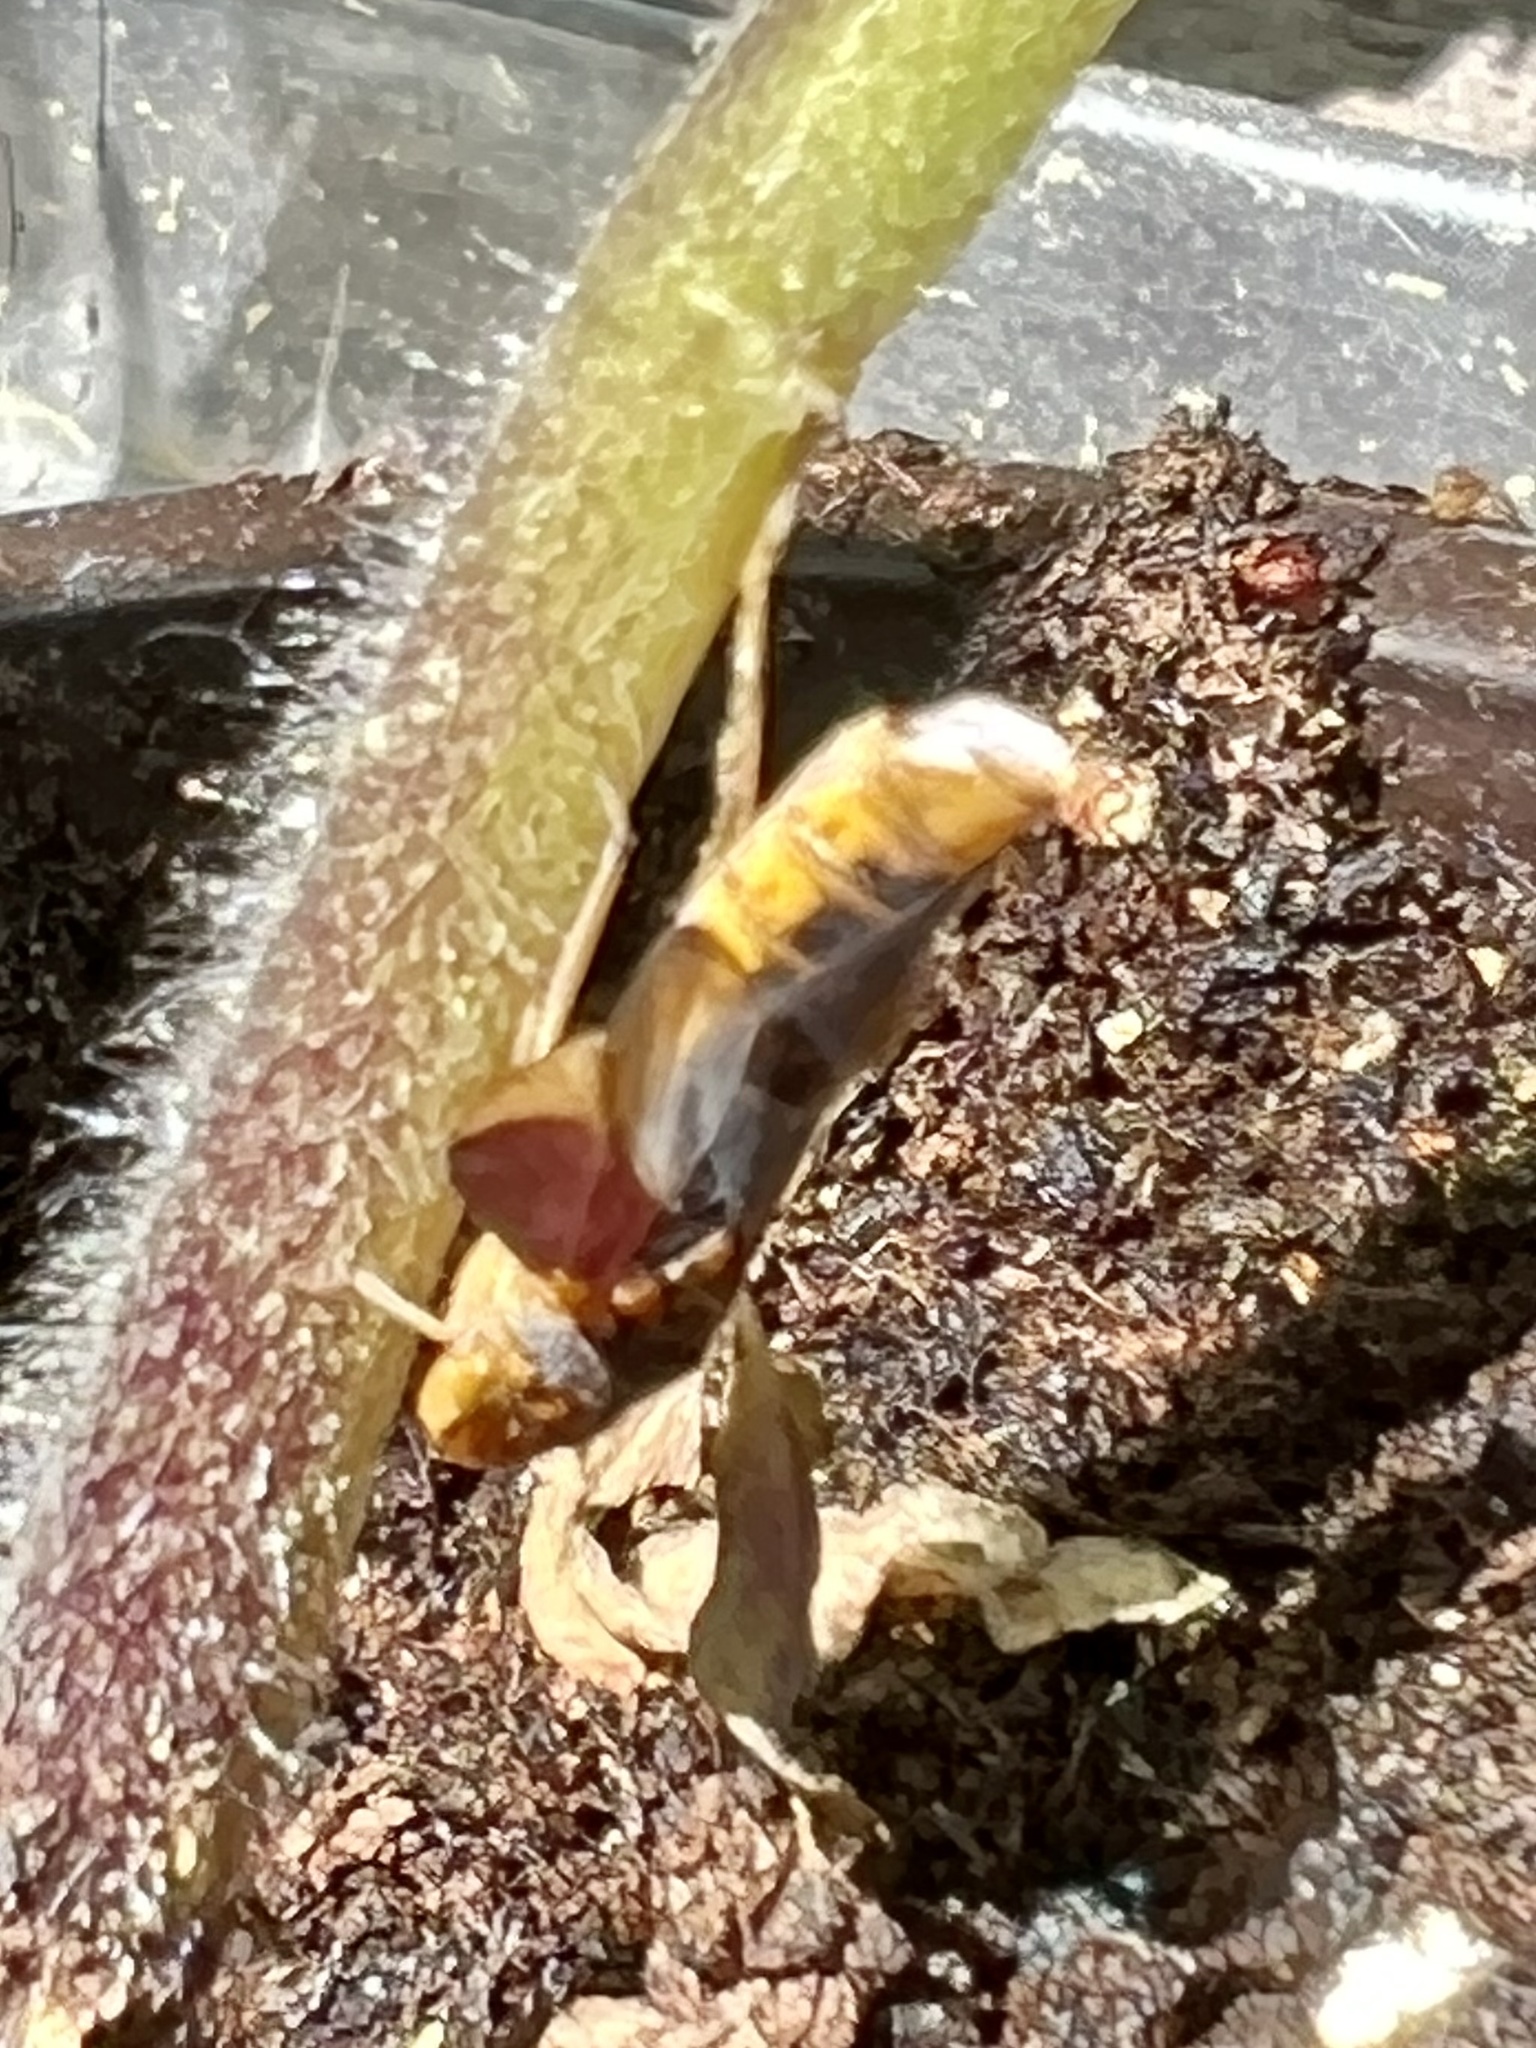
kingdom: Animalia
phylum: Arthropoda
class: Insecta
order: Hemiptera
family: Cicadellidae
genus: Oncometopia
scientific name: Oncometopia orbona
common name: Broad-headed sharpshooter
